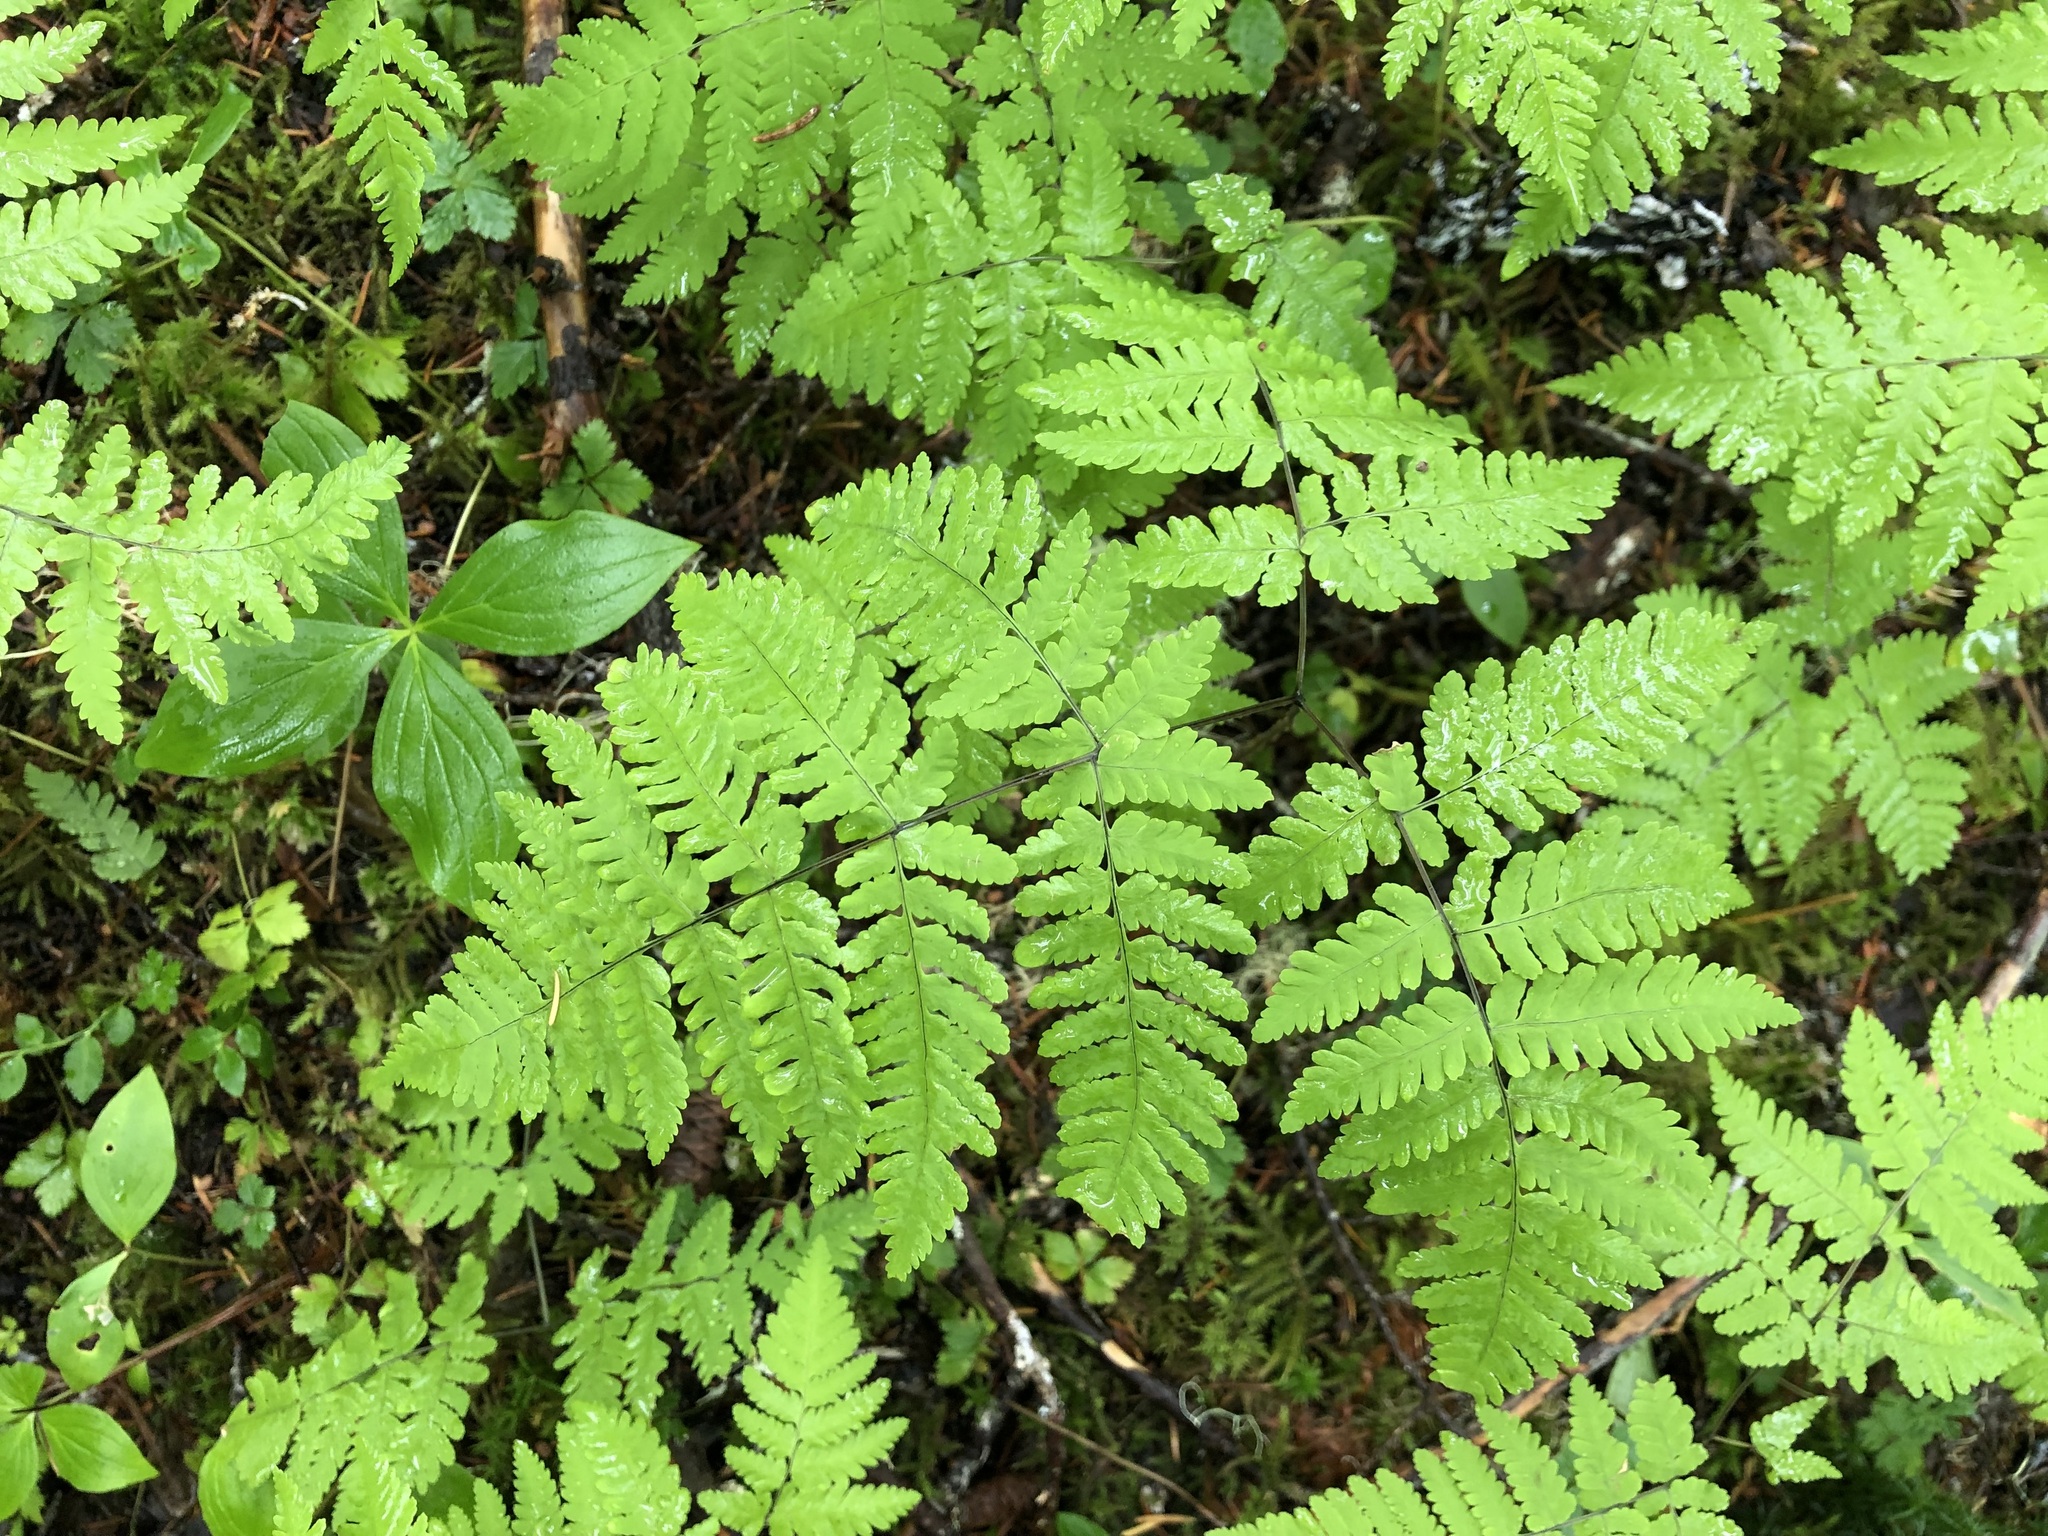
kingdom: Plantae
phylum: Tracheophyta
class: Polypodiopsida
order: Polypodiales
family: Cystopteridaceae
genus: Gymnocarpium
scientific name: Gymnocarpium disjunctum
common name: Western oak fern
